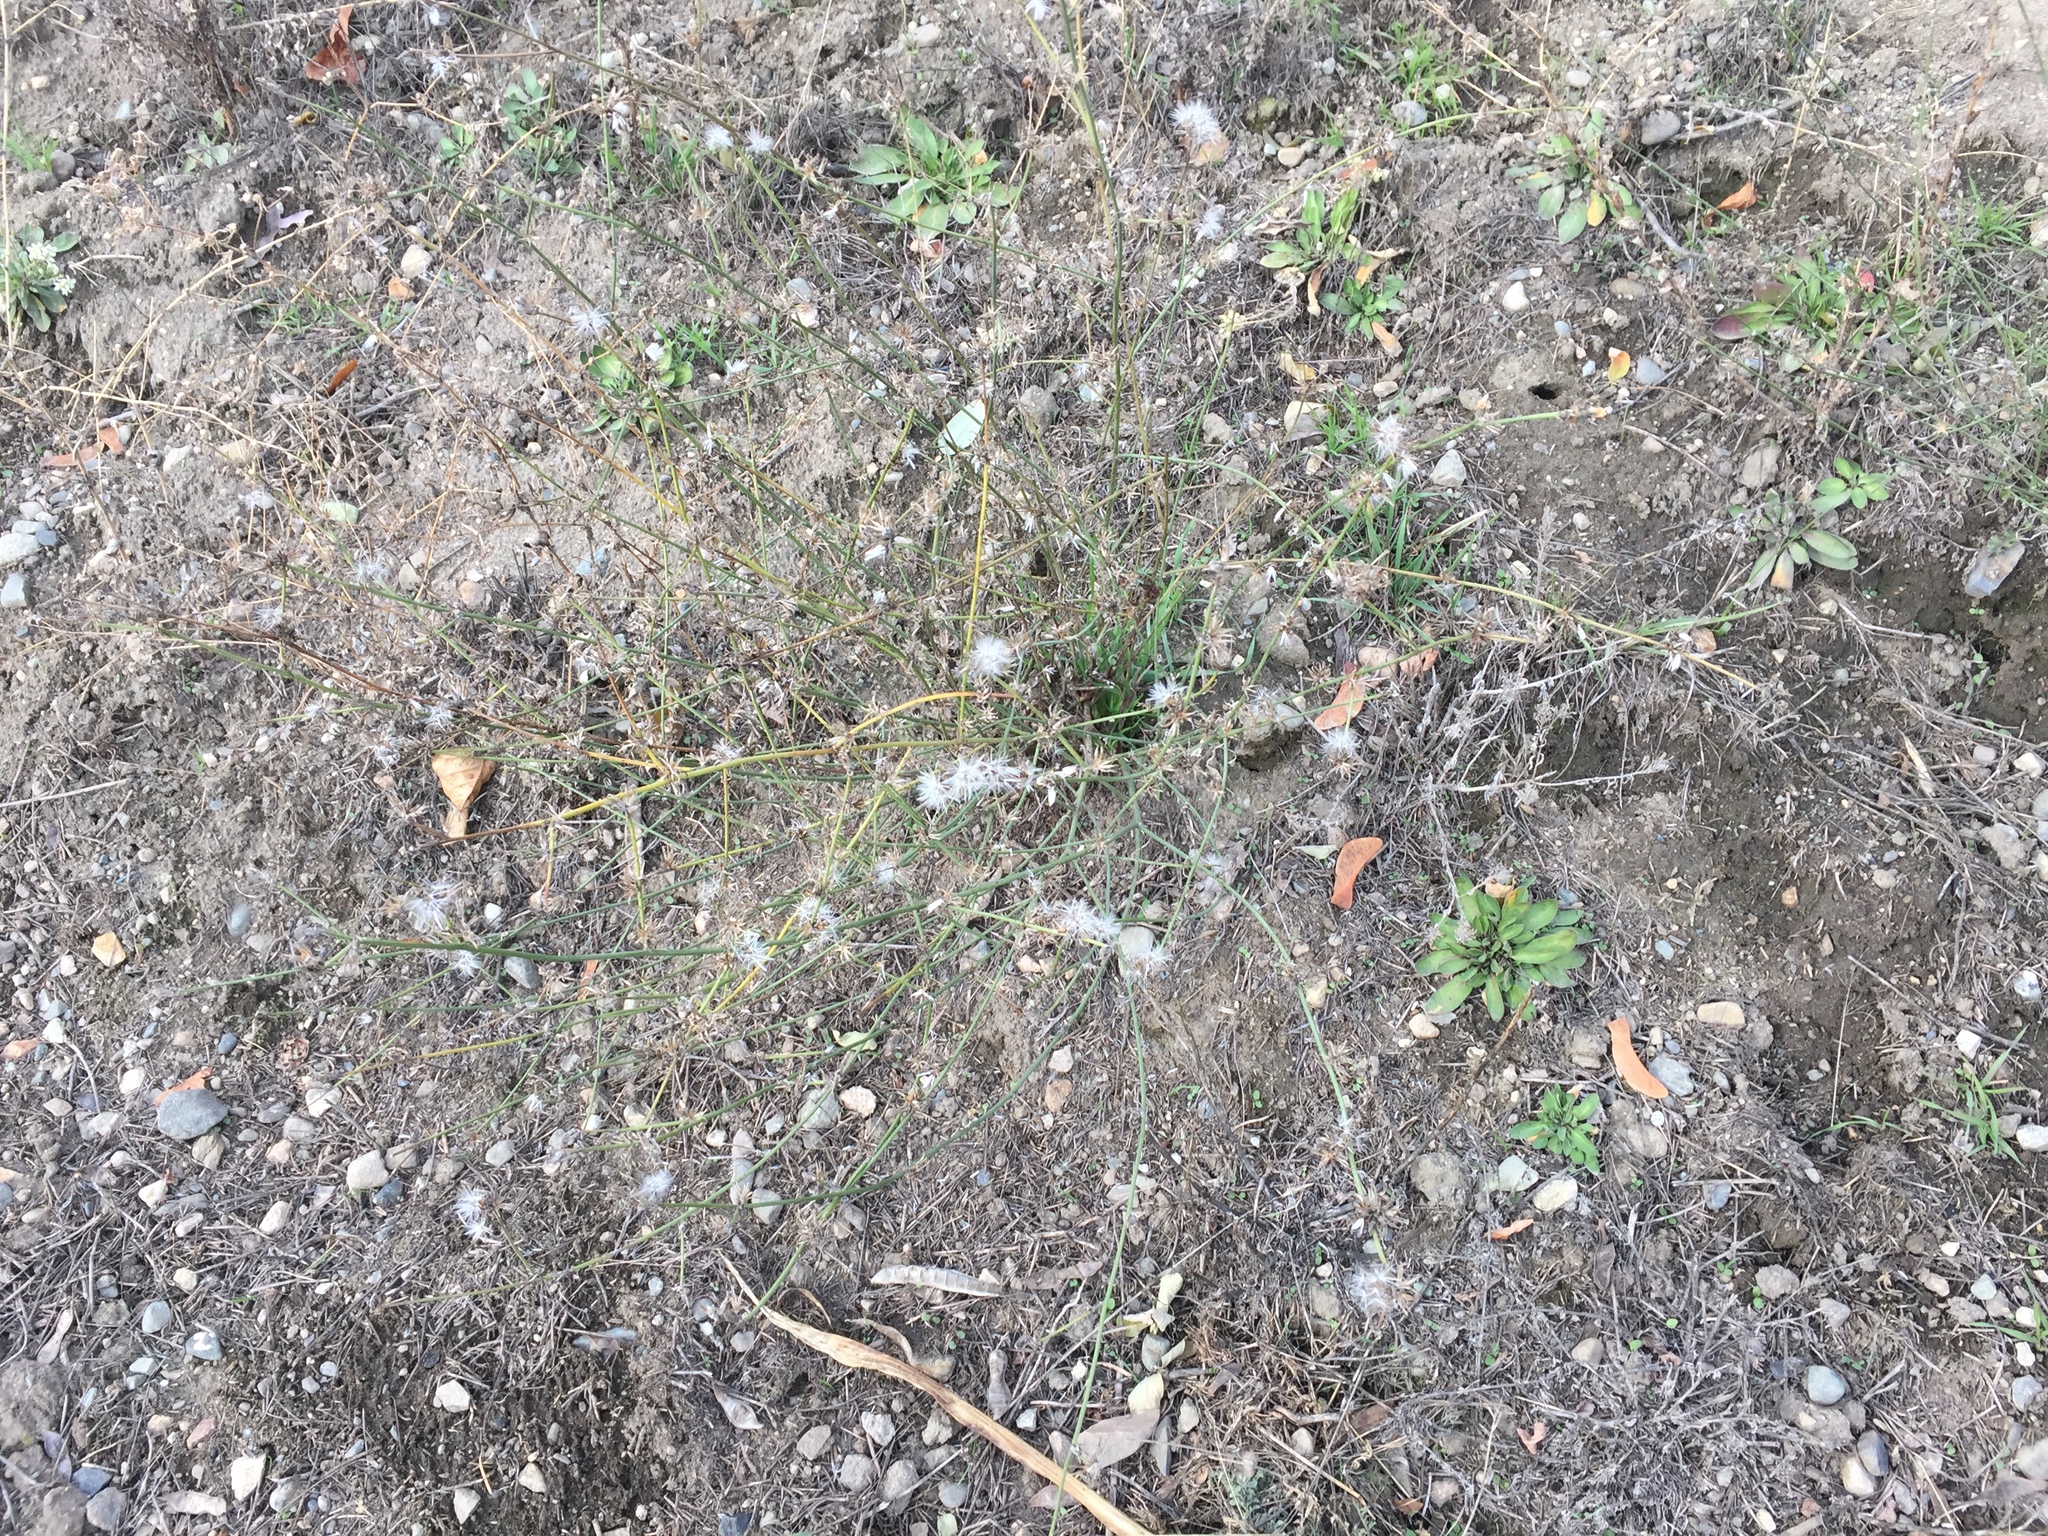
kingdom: Plantae
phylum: Tracheophyta
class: Magnoliopsida
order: Asterales
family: Asteraceae
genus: Chondrilla
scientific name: Chondrilla juncea
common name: Skeleton weed
